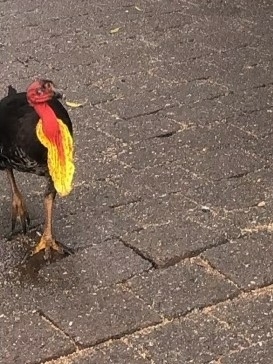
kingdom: Animalia
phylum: Chordata
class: Aves
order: Galliformes
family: Megapodiidae
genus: Alectura
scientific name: Alectura lathami
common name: Australian brushturkey
